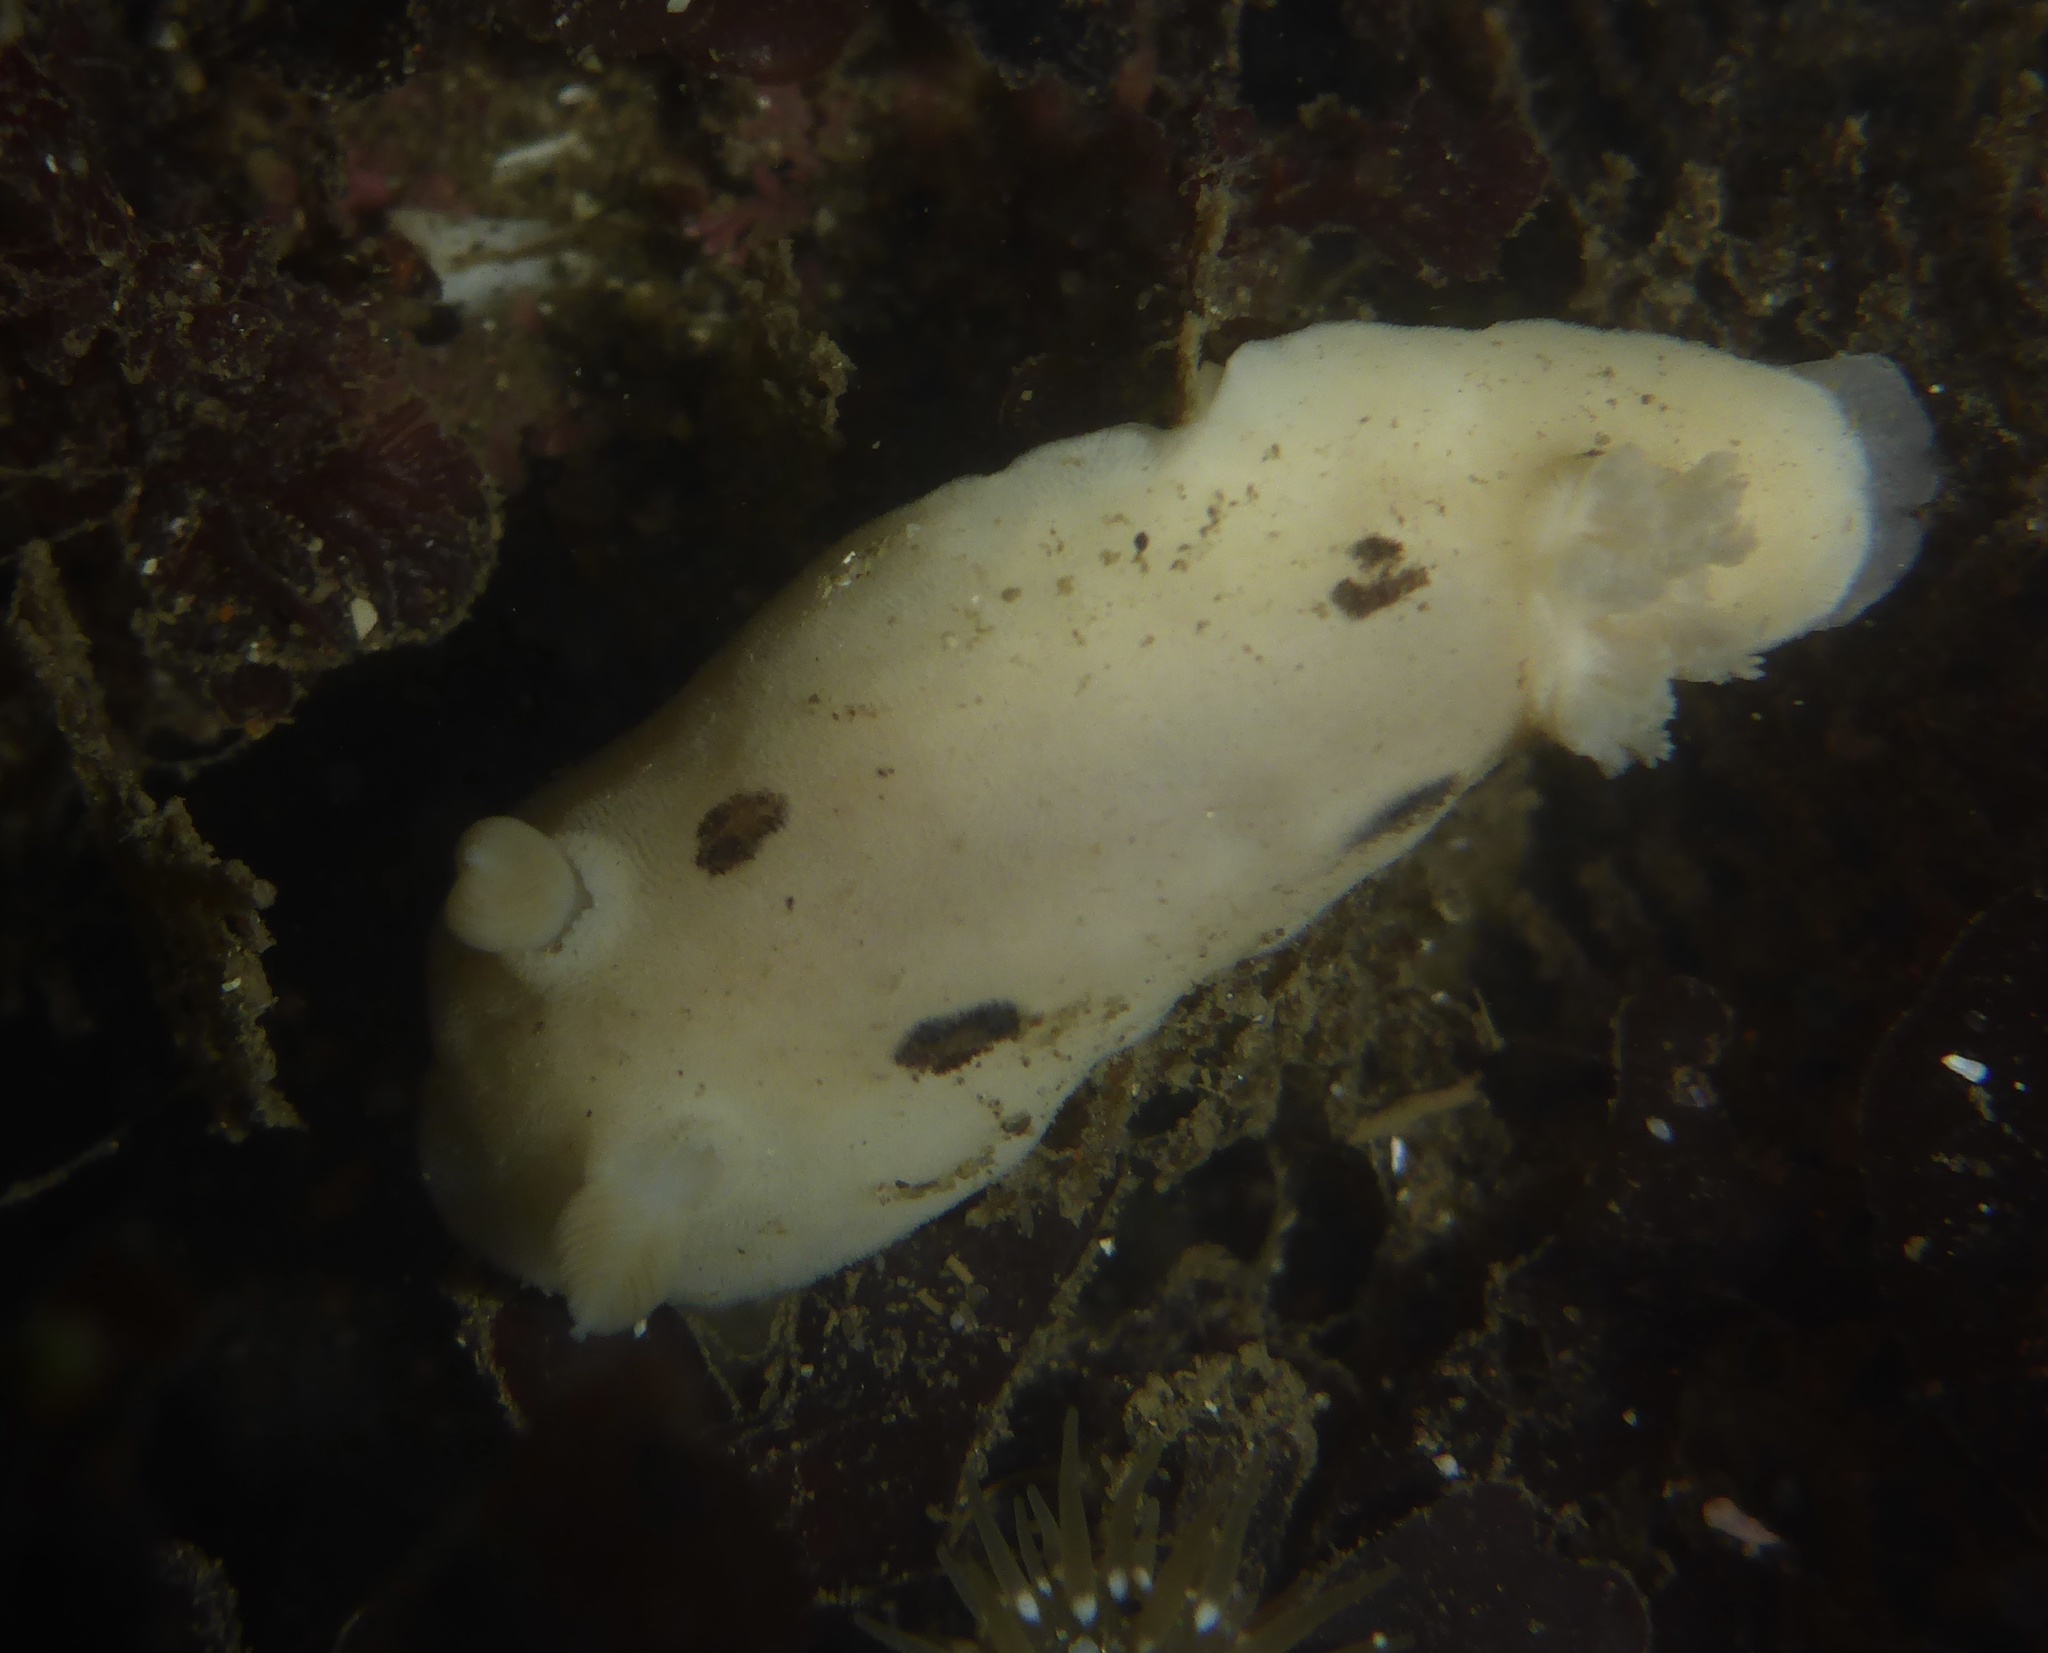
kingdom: Animalia
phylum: Mollusca
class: Gastropoda
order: Nudibranchia
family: Discodorididae
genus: Diaulula
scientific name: Diaulula sandiegensis
